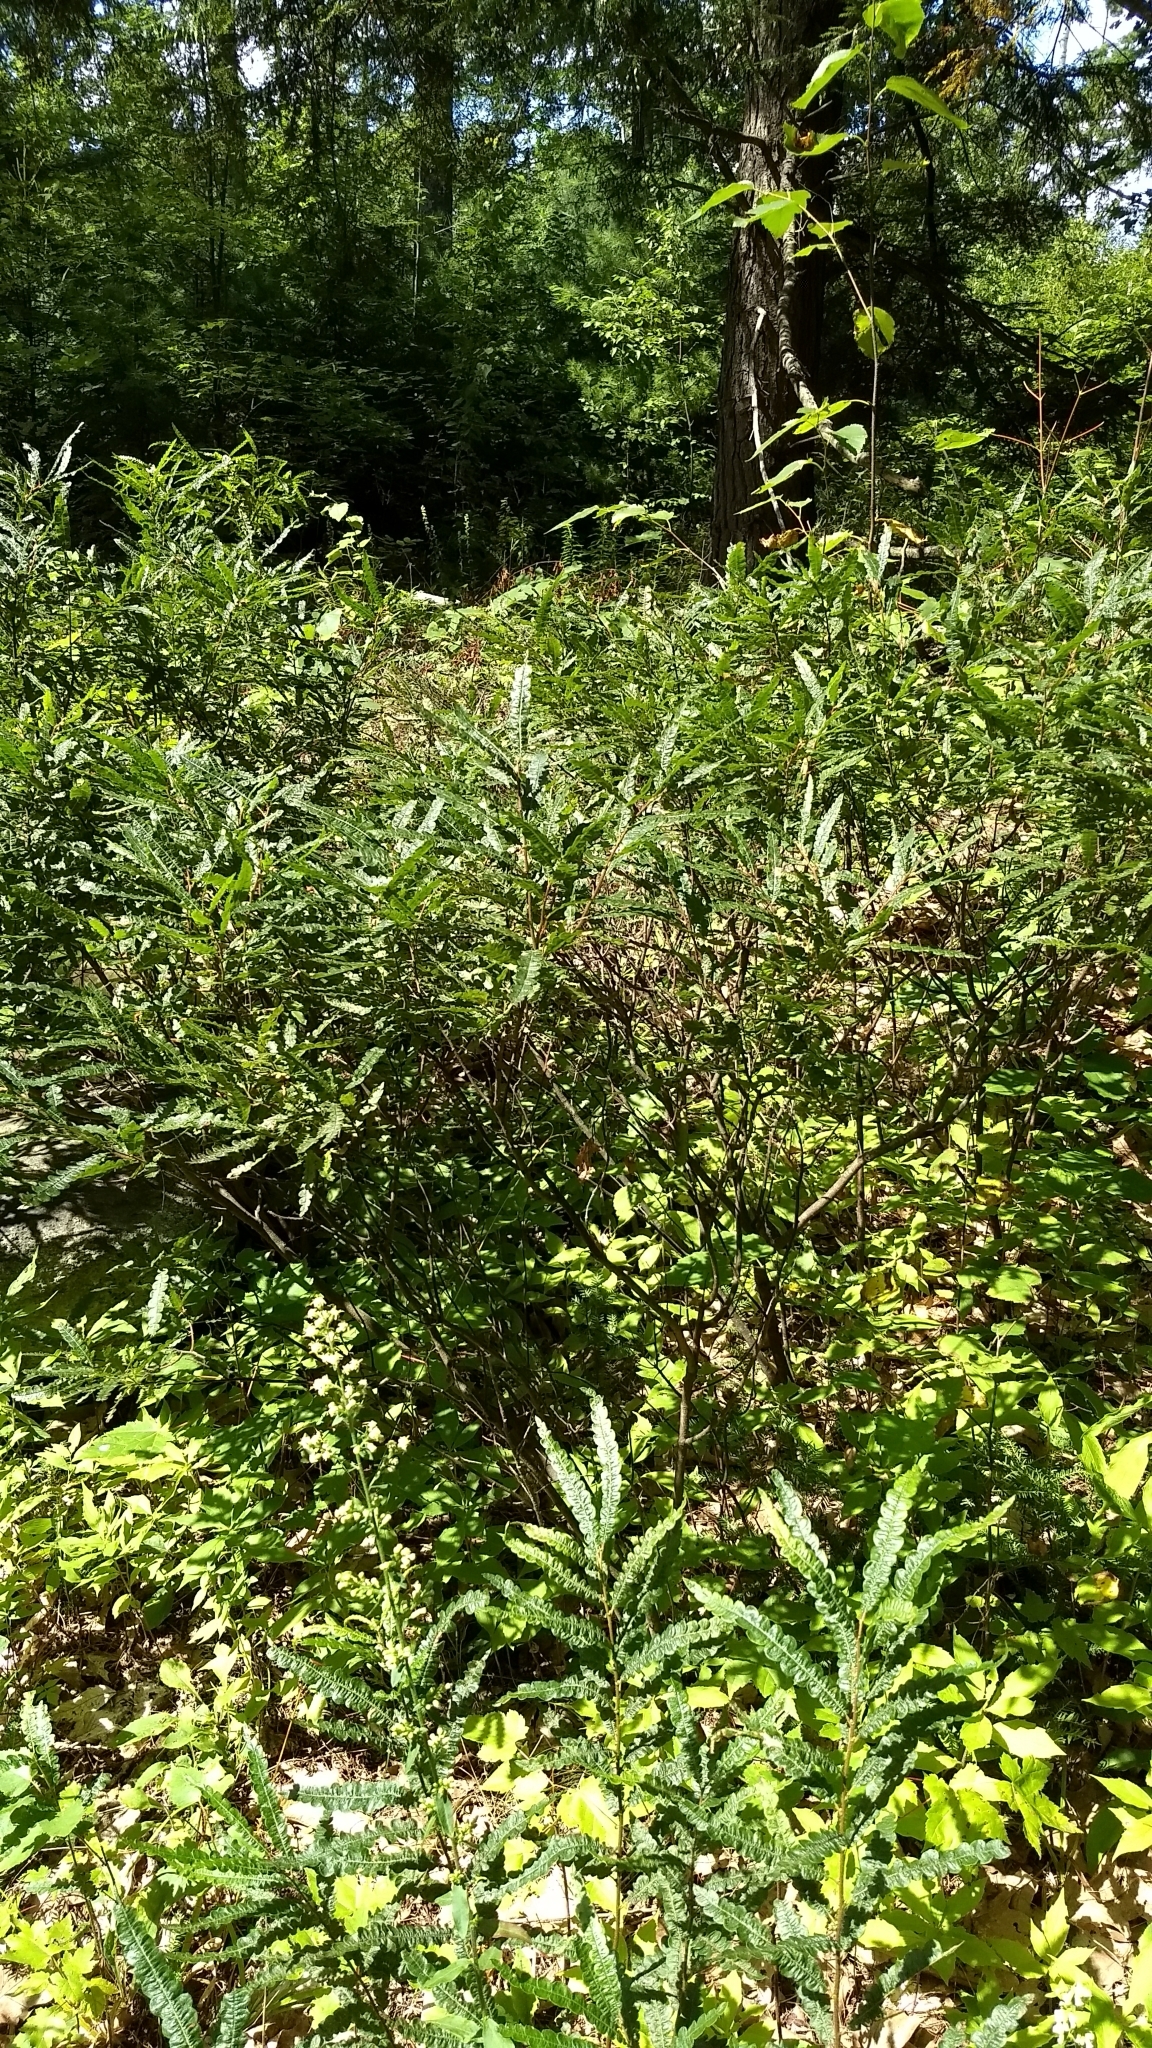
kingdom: Plantae
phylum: Tracheophyta
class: Magnoliopsida
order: Fagales
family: Myricaceae
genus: Comptonia
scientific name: Comptonia peregrina
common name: Sweet-fern
